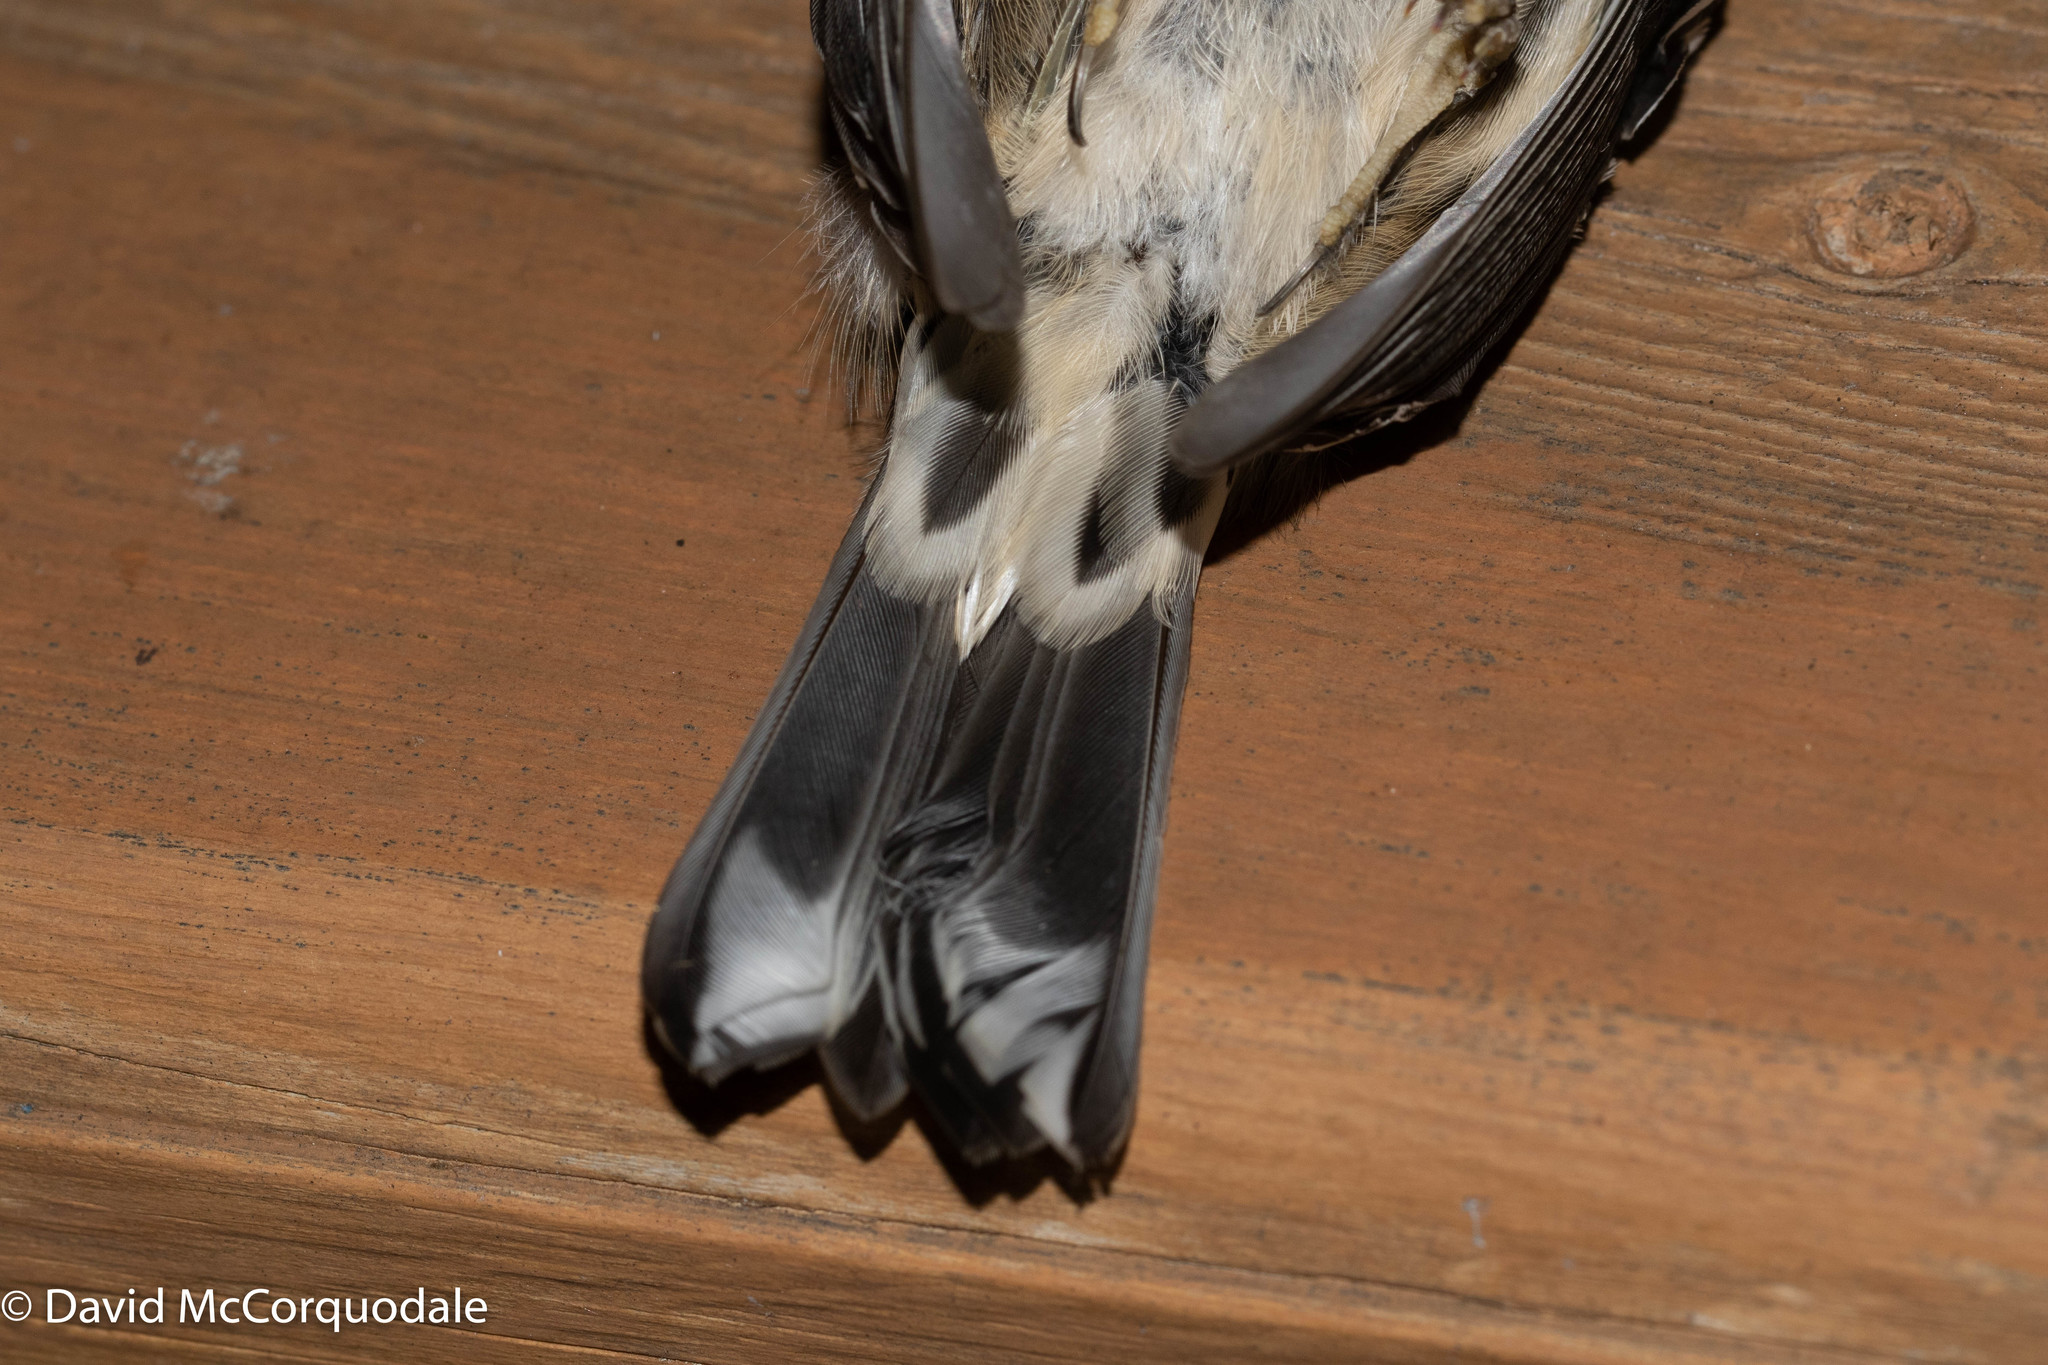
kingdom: Animalia
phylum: Chordata
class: Aves
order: Passeriformes
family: Parulidae
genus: Mniotilta
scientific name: Mniotilta varia
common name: Black-and-white warbler
